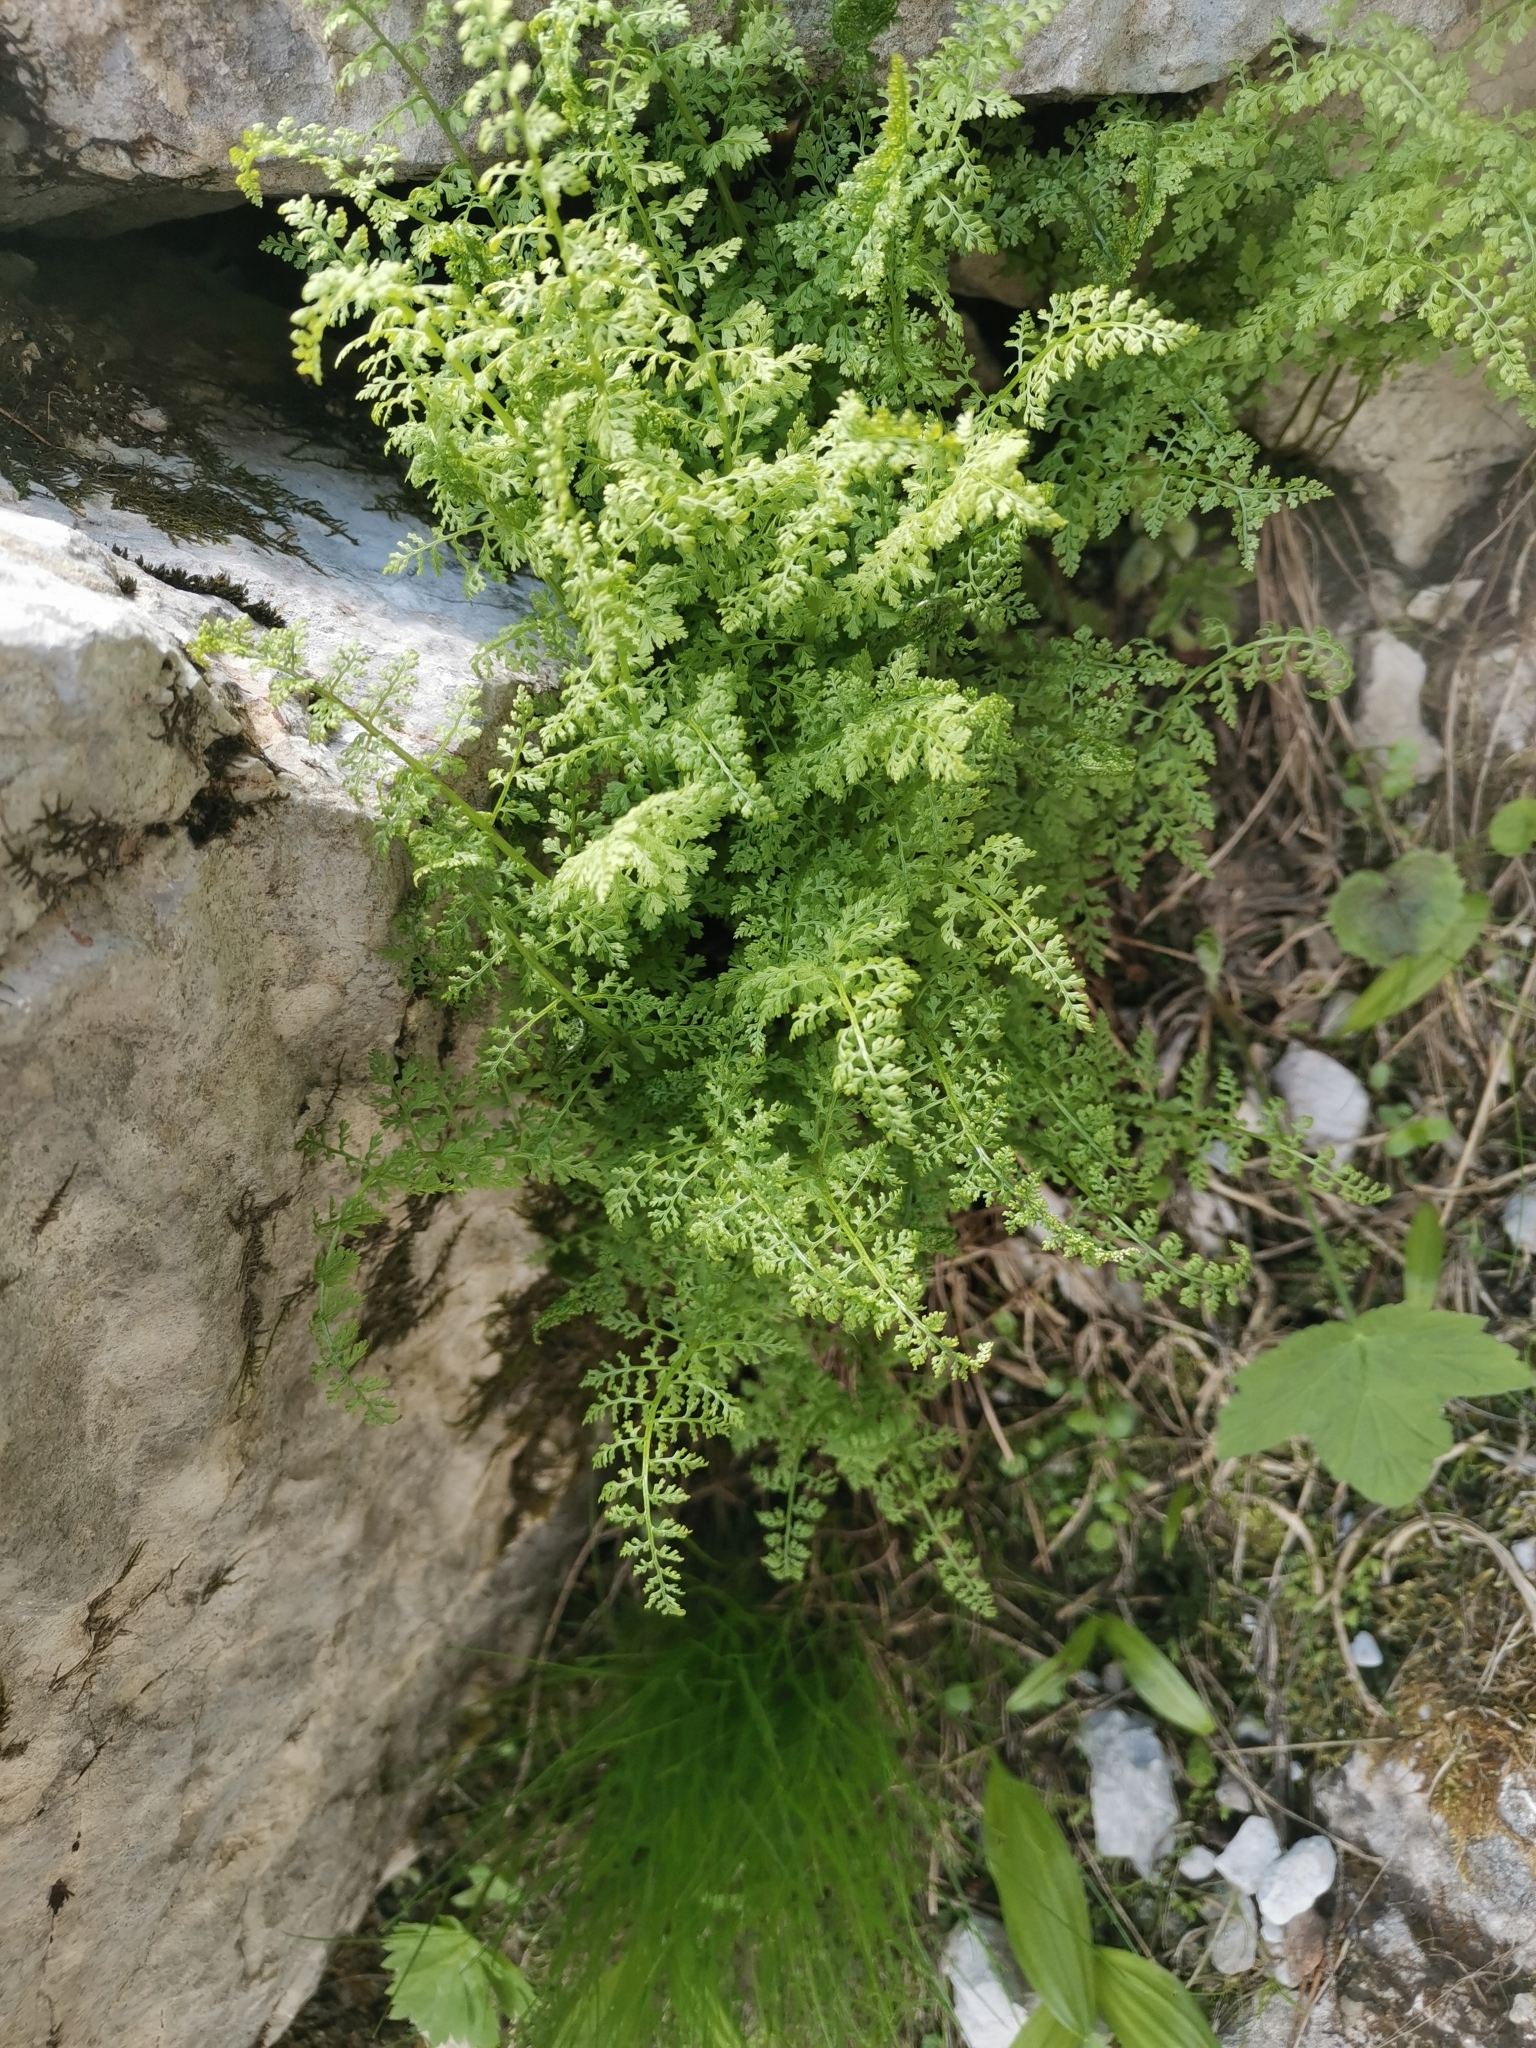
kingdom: Plantae
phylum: Tracheophyta
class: Polypodiopsida
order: Polypodiales
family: Cystopteridaceae
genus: Cystopteris
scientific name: Cystopteris alpina
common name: Alpine bladder-fern
